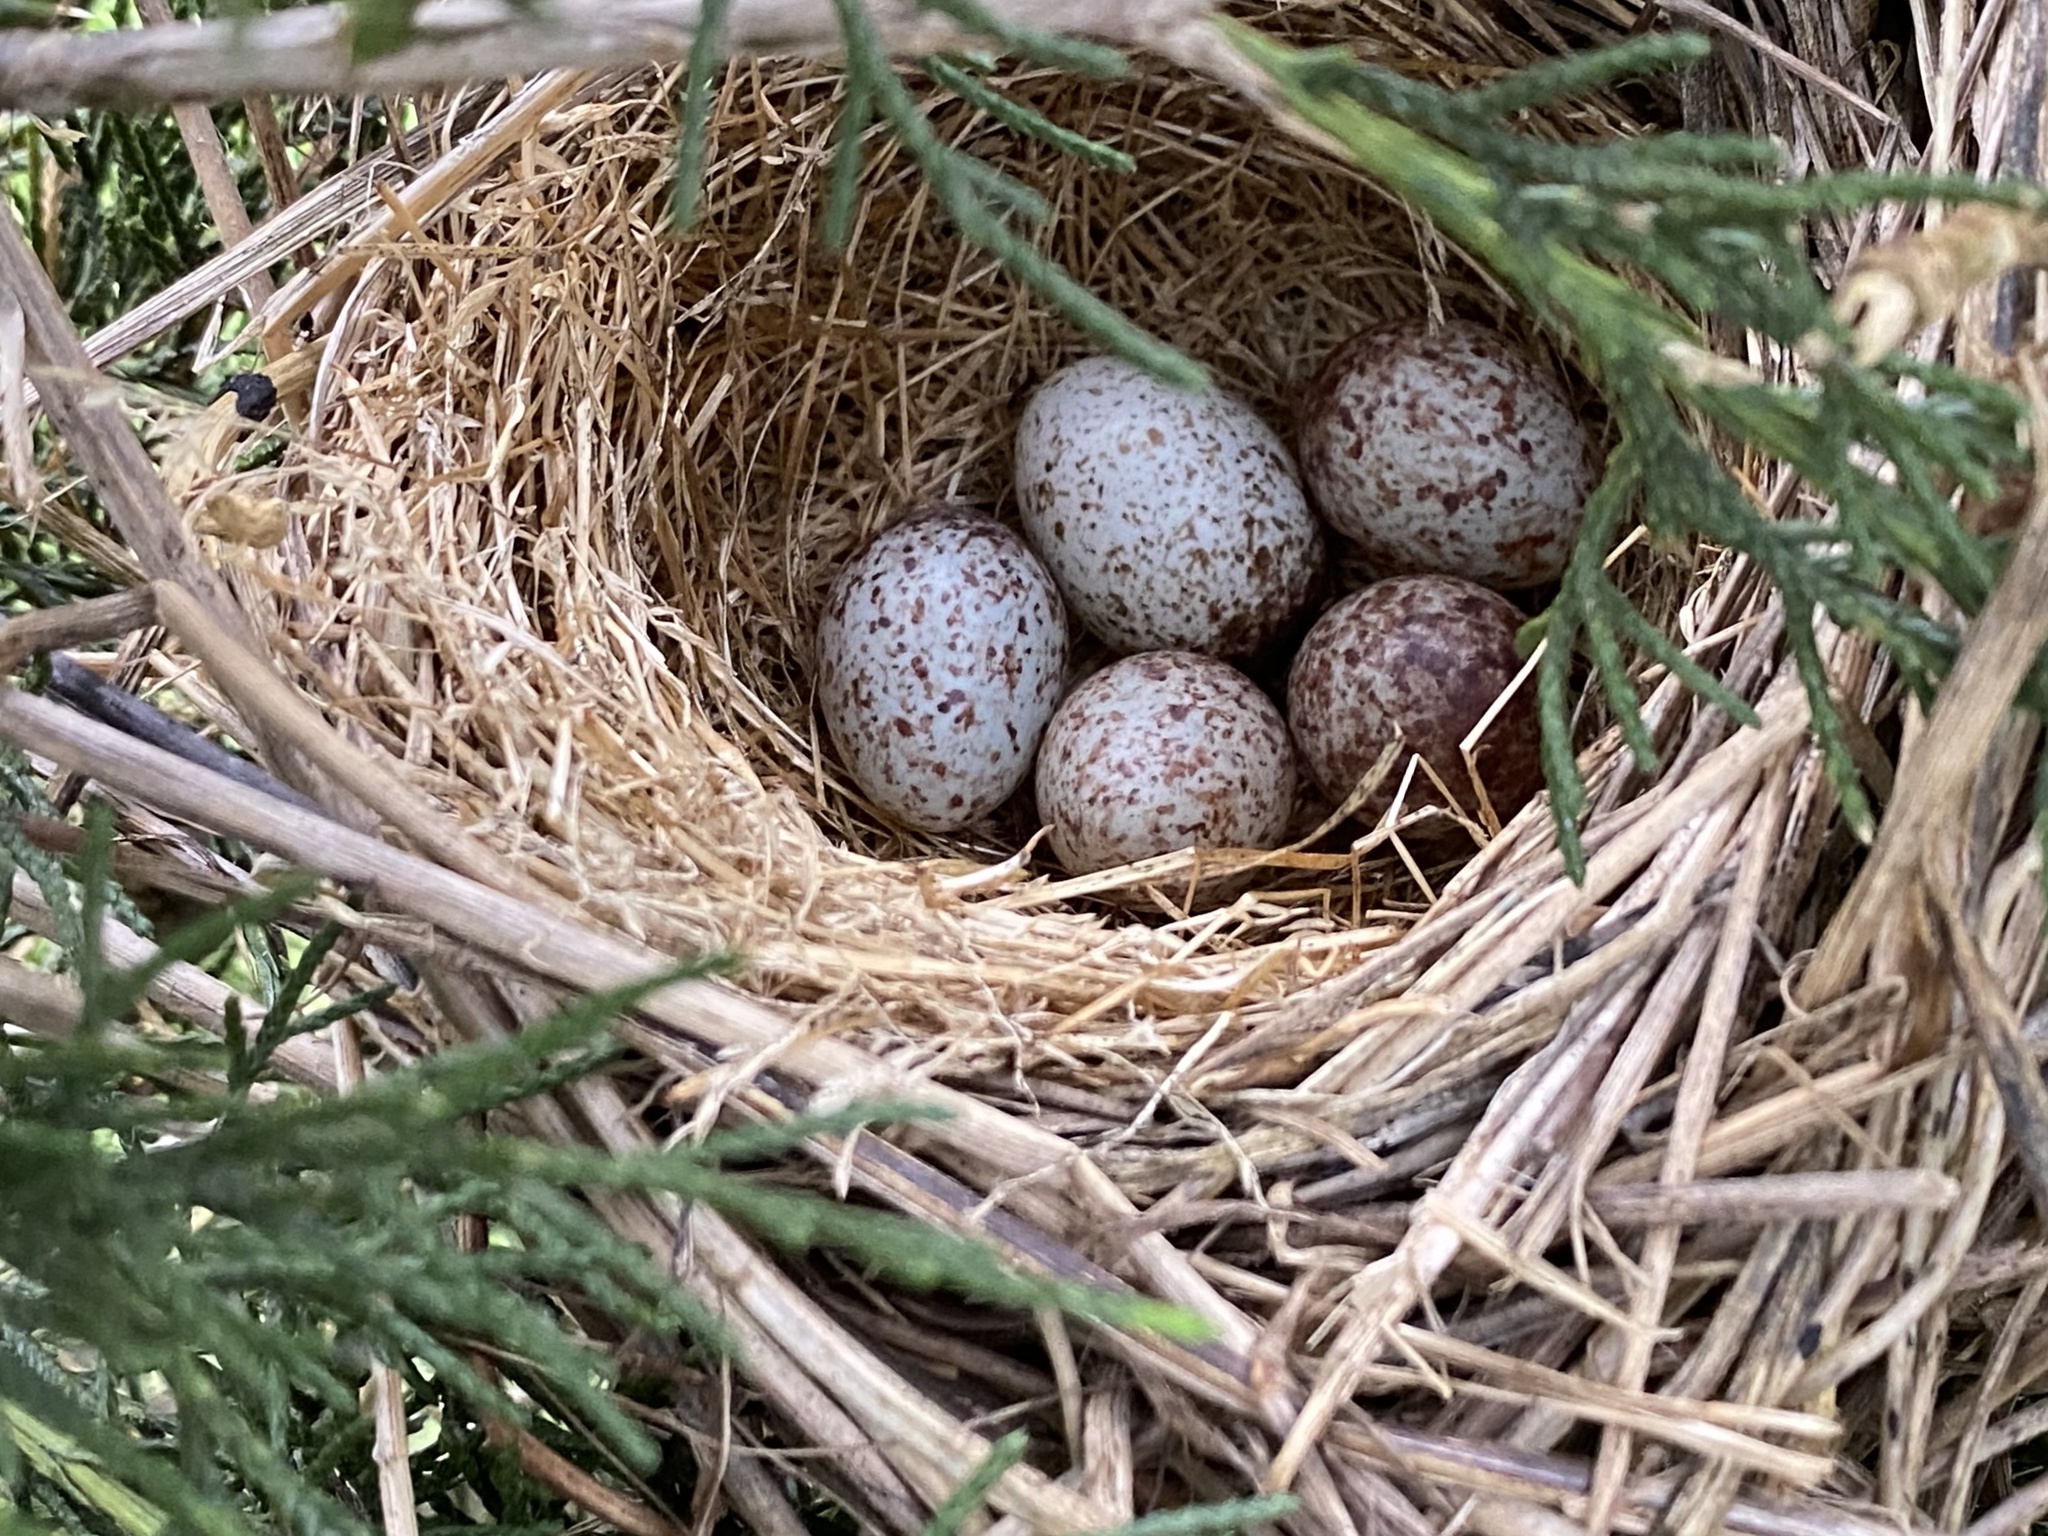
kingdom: Animalia
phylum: Chordata
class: Aves
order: Passeriformes
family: Passerellidae
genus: Melospiza
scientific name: Melospiza melodia
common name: Song sparrow
